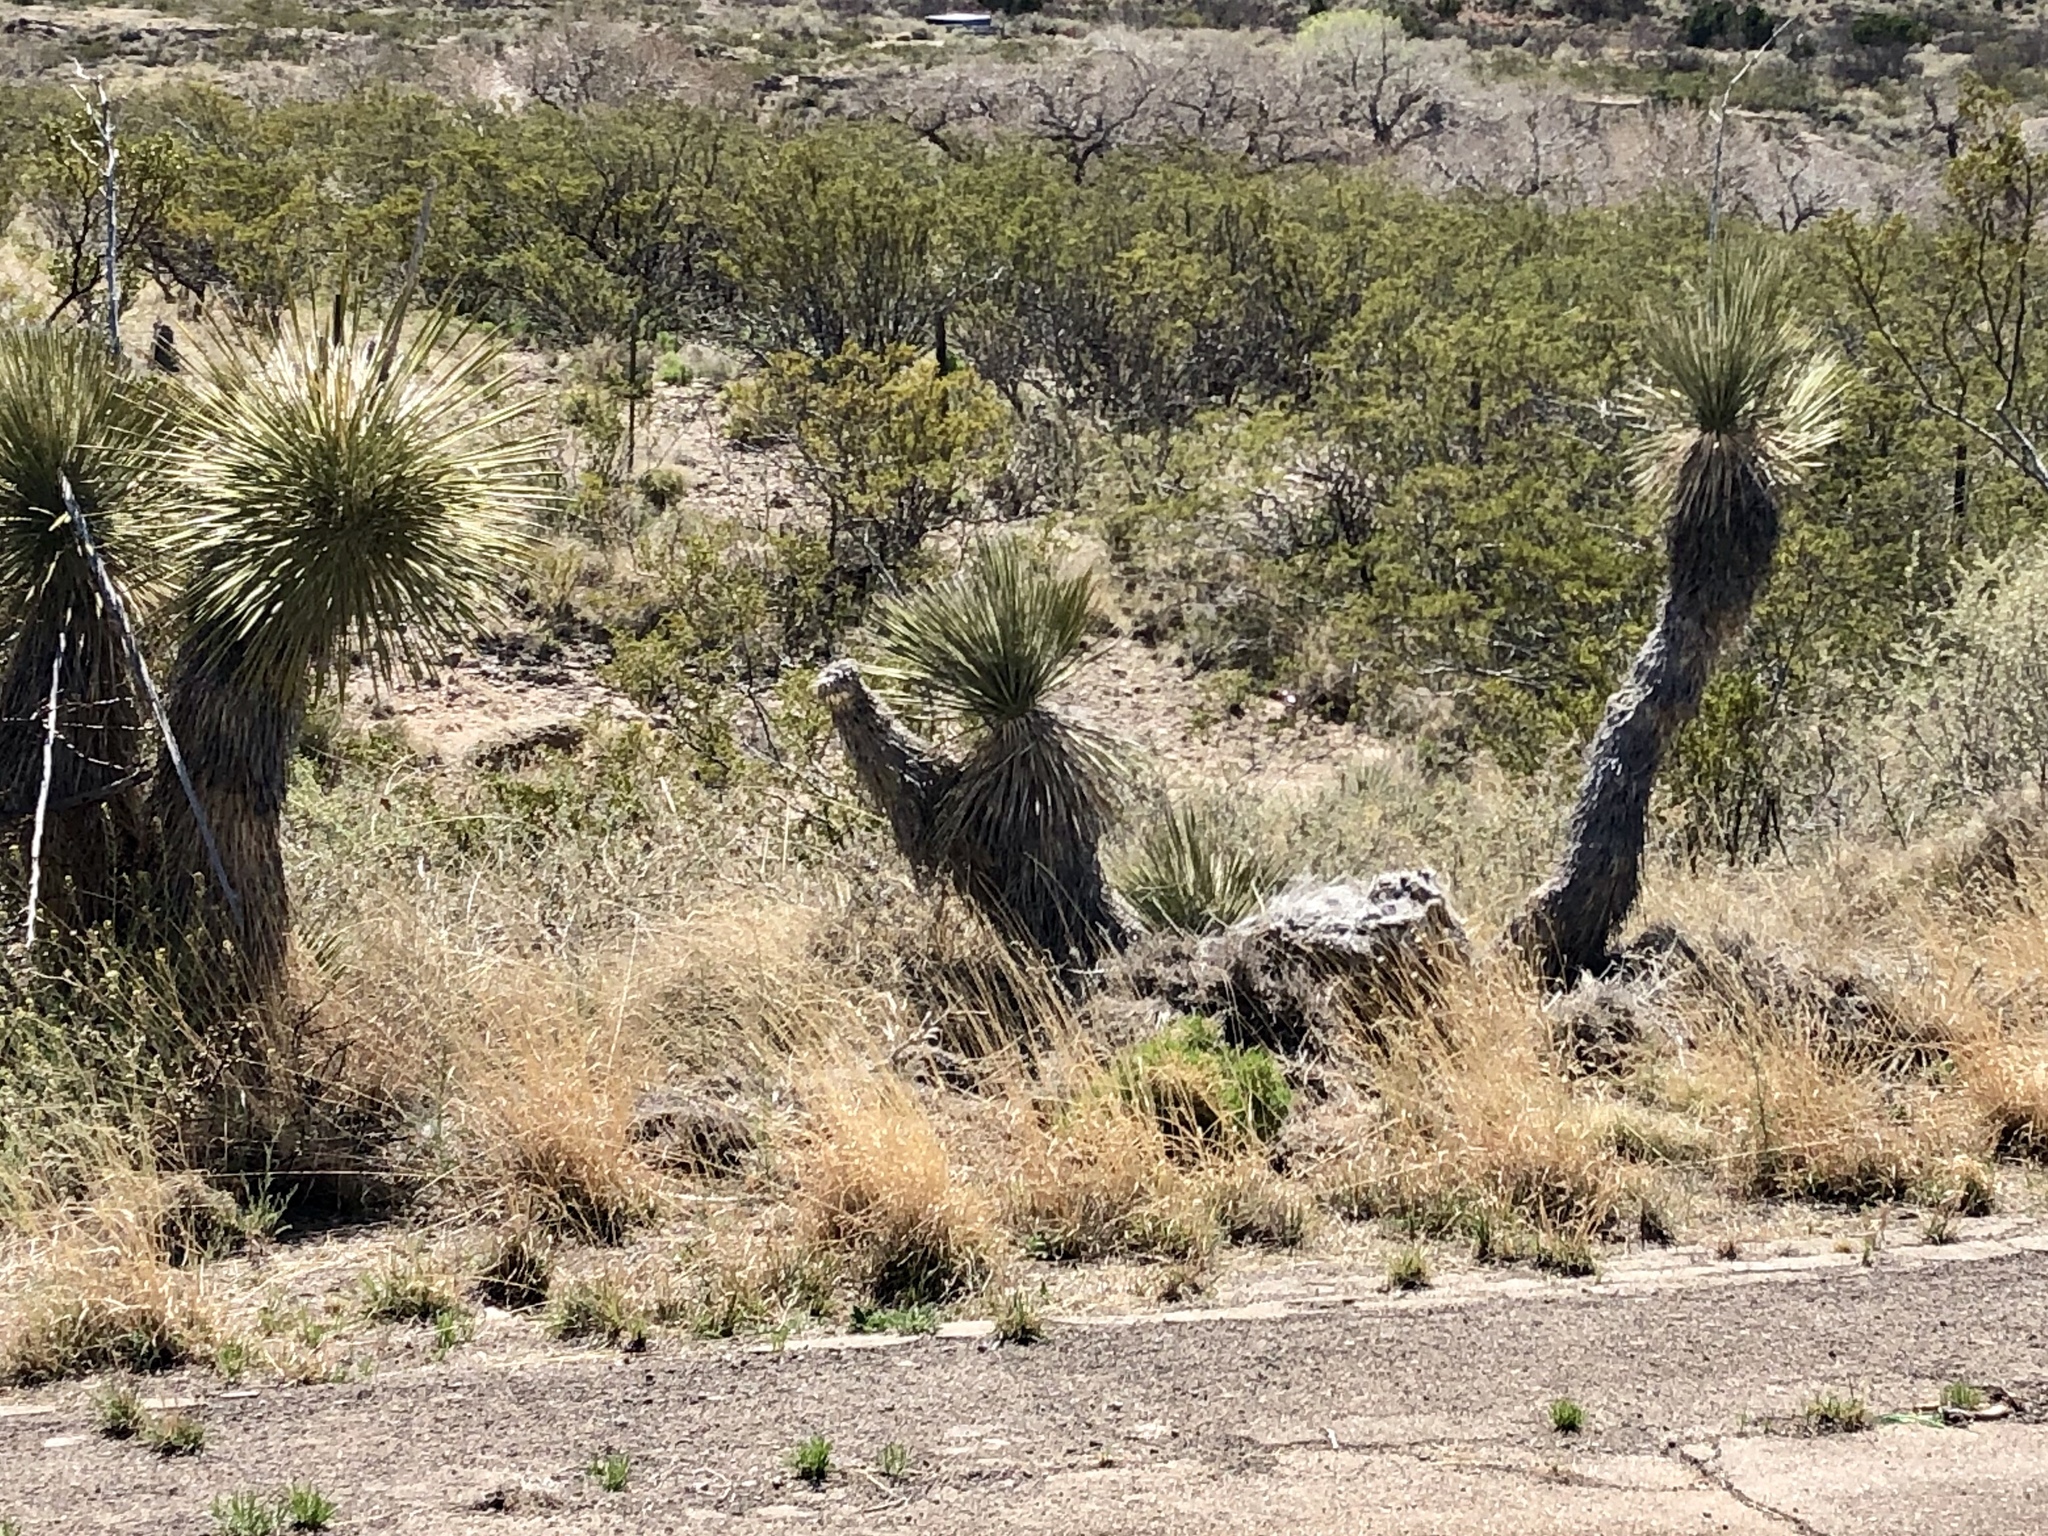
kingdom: Plantae
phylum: Tracheophyta
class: Liliopsida
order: Asparagales
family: Asparagaceae
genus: Yucca
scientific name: Yucca elata
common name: Palmella
